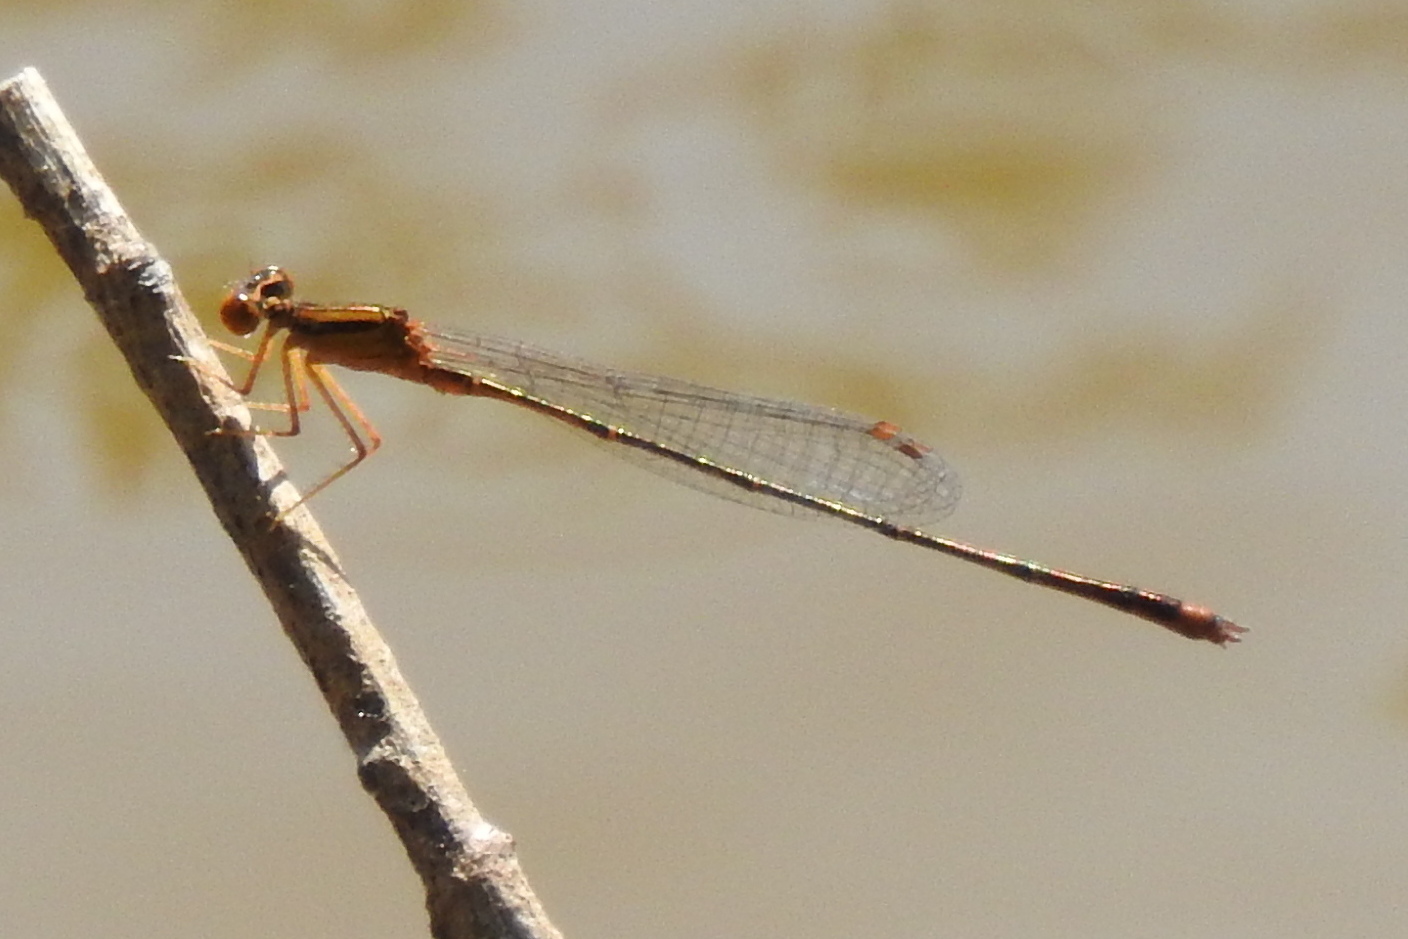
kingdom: Animalia
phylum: Arthropoda
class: Insecta
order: Odonata
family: Coenagrionidae
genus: Enallagma
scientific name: Enallagma signatum
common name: Orange bluet
